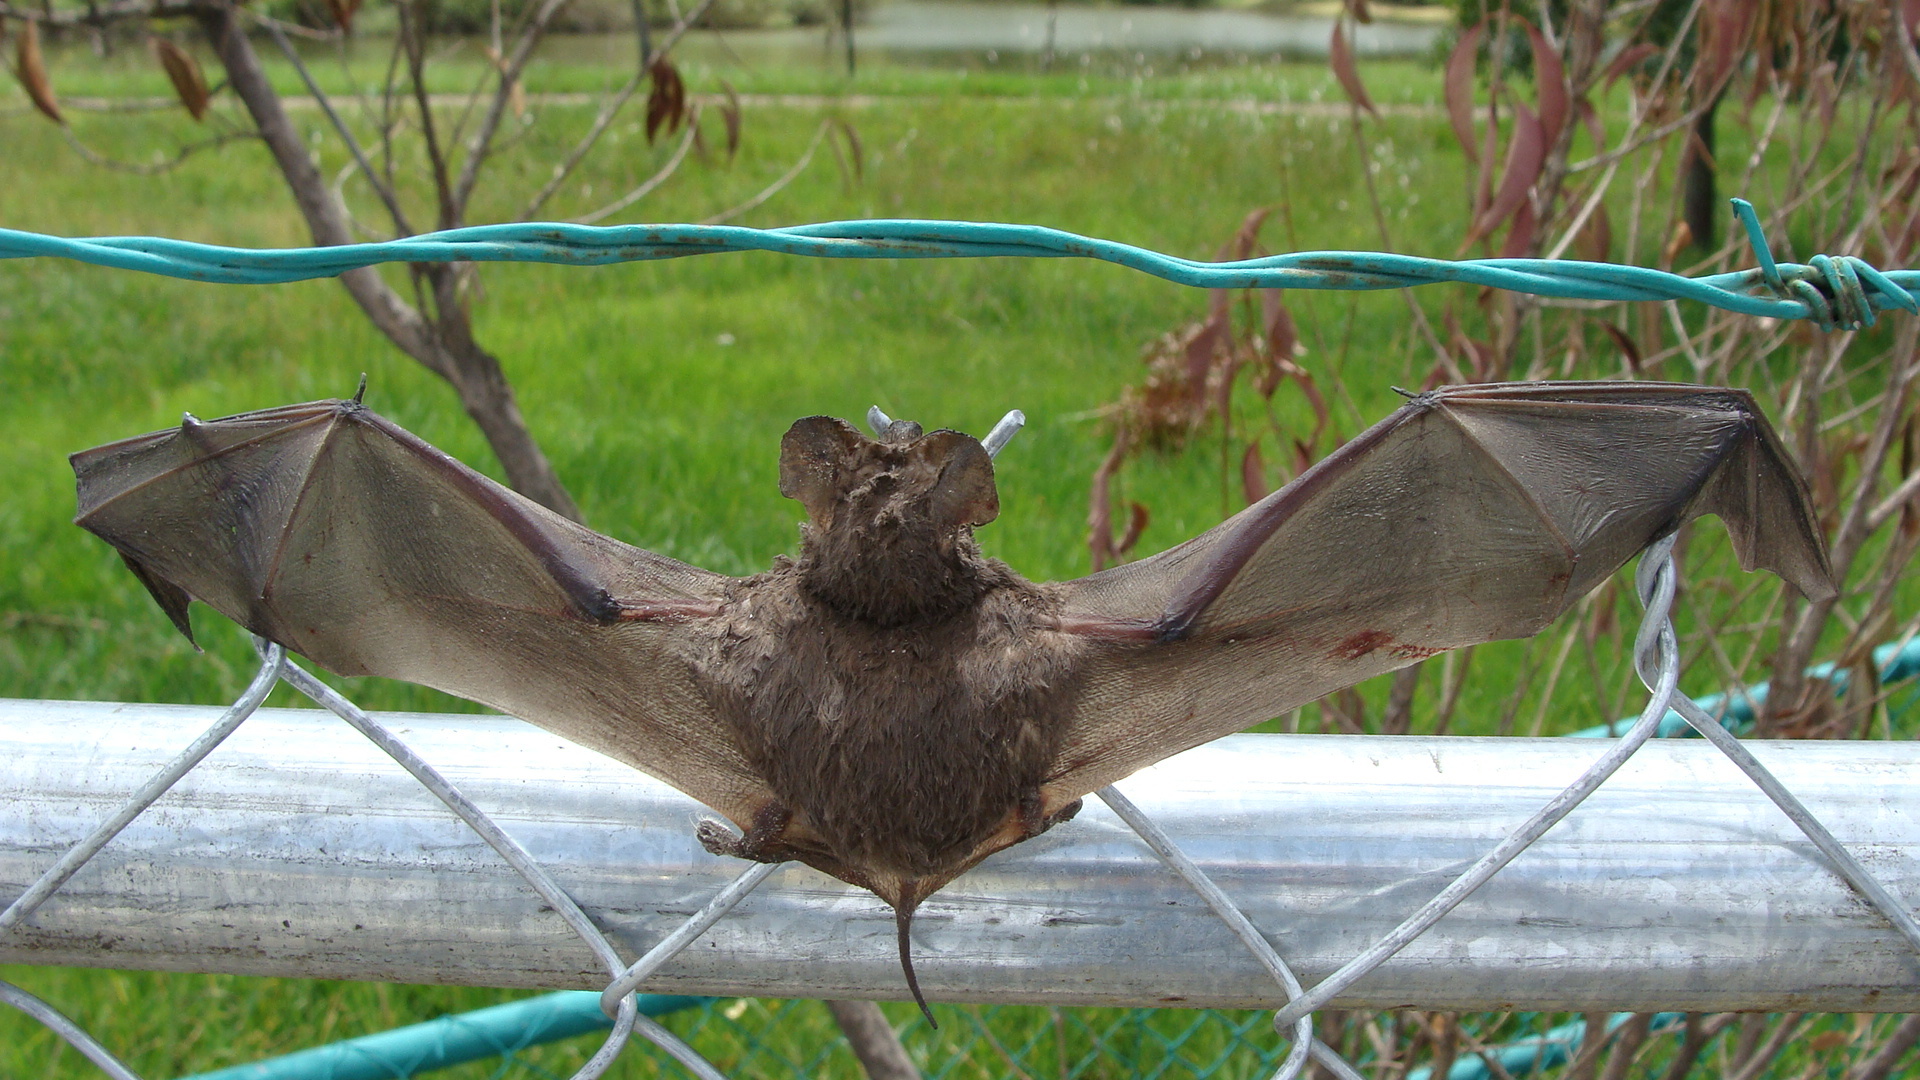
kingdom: Animalia
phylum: Chordata
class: Mammalia
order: Chiroptera
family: Molossidae
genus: Tadarida
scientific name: Tadarida brasiliensis
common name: Mexican free-tailed bat
